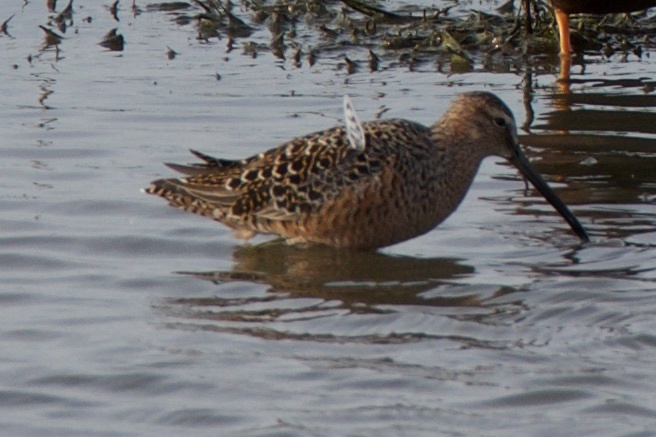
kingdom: Animalia
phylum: Chordata
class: Aves
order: Charadriiformes
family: Scolopacidae
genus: Limnodromus
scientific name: Limnodromus scolopaceus
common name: Long-billed dowitcher
